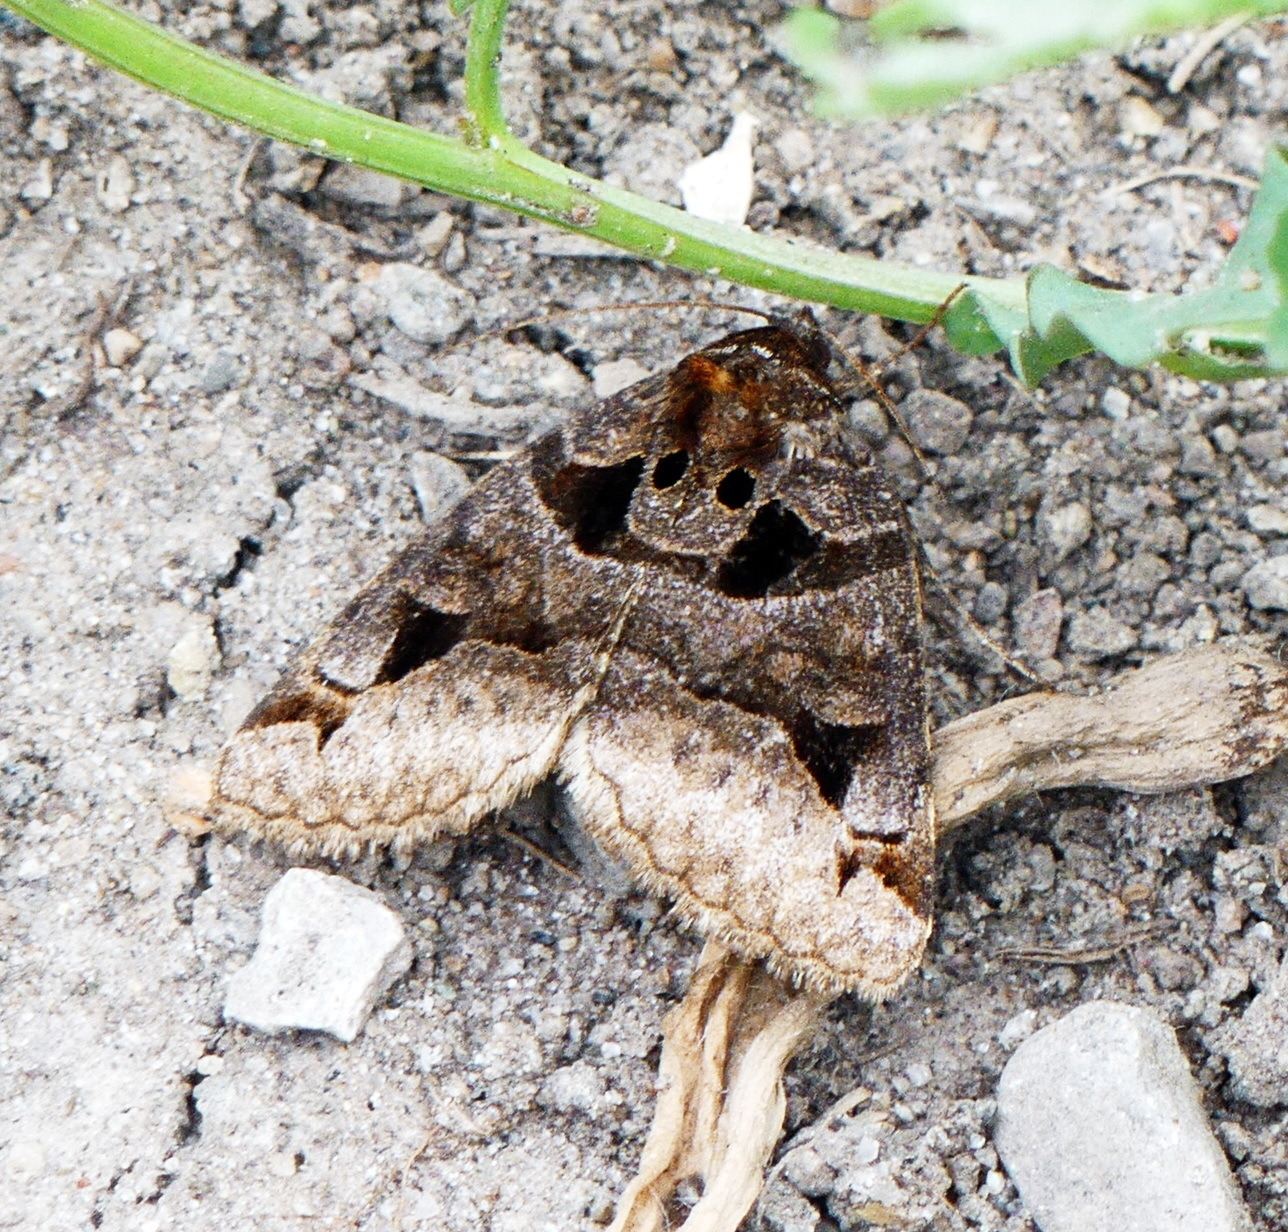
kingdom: Animalia
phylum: Arthropoda
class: Insecta
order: Lepidoptera
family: Erebidae
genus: Euclidia
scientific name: Euclidia cuspidea
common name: Toothed somberwing
